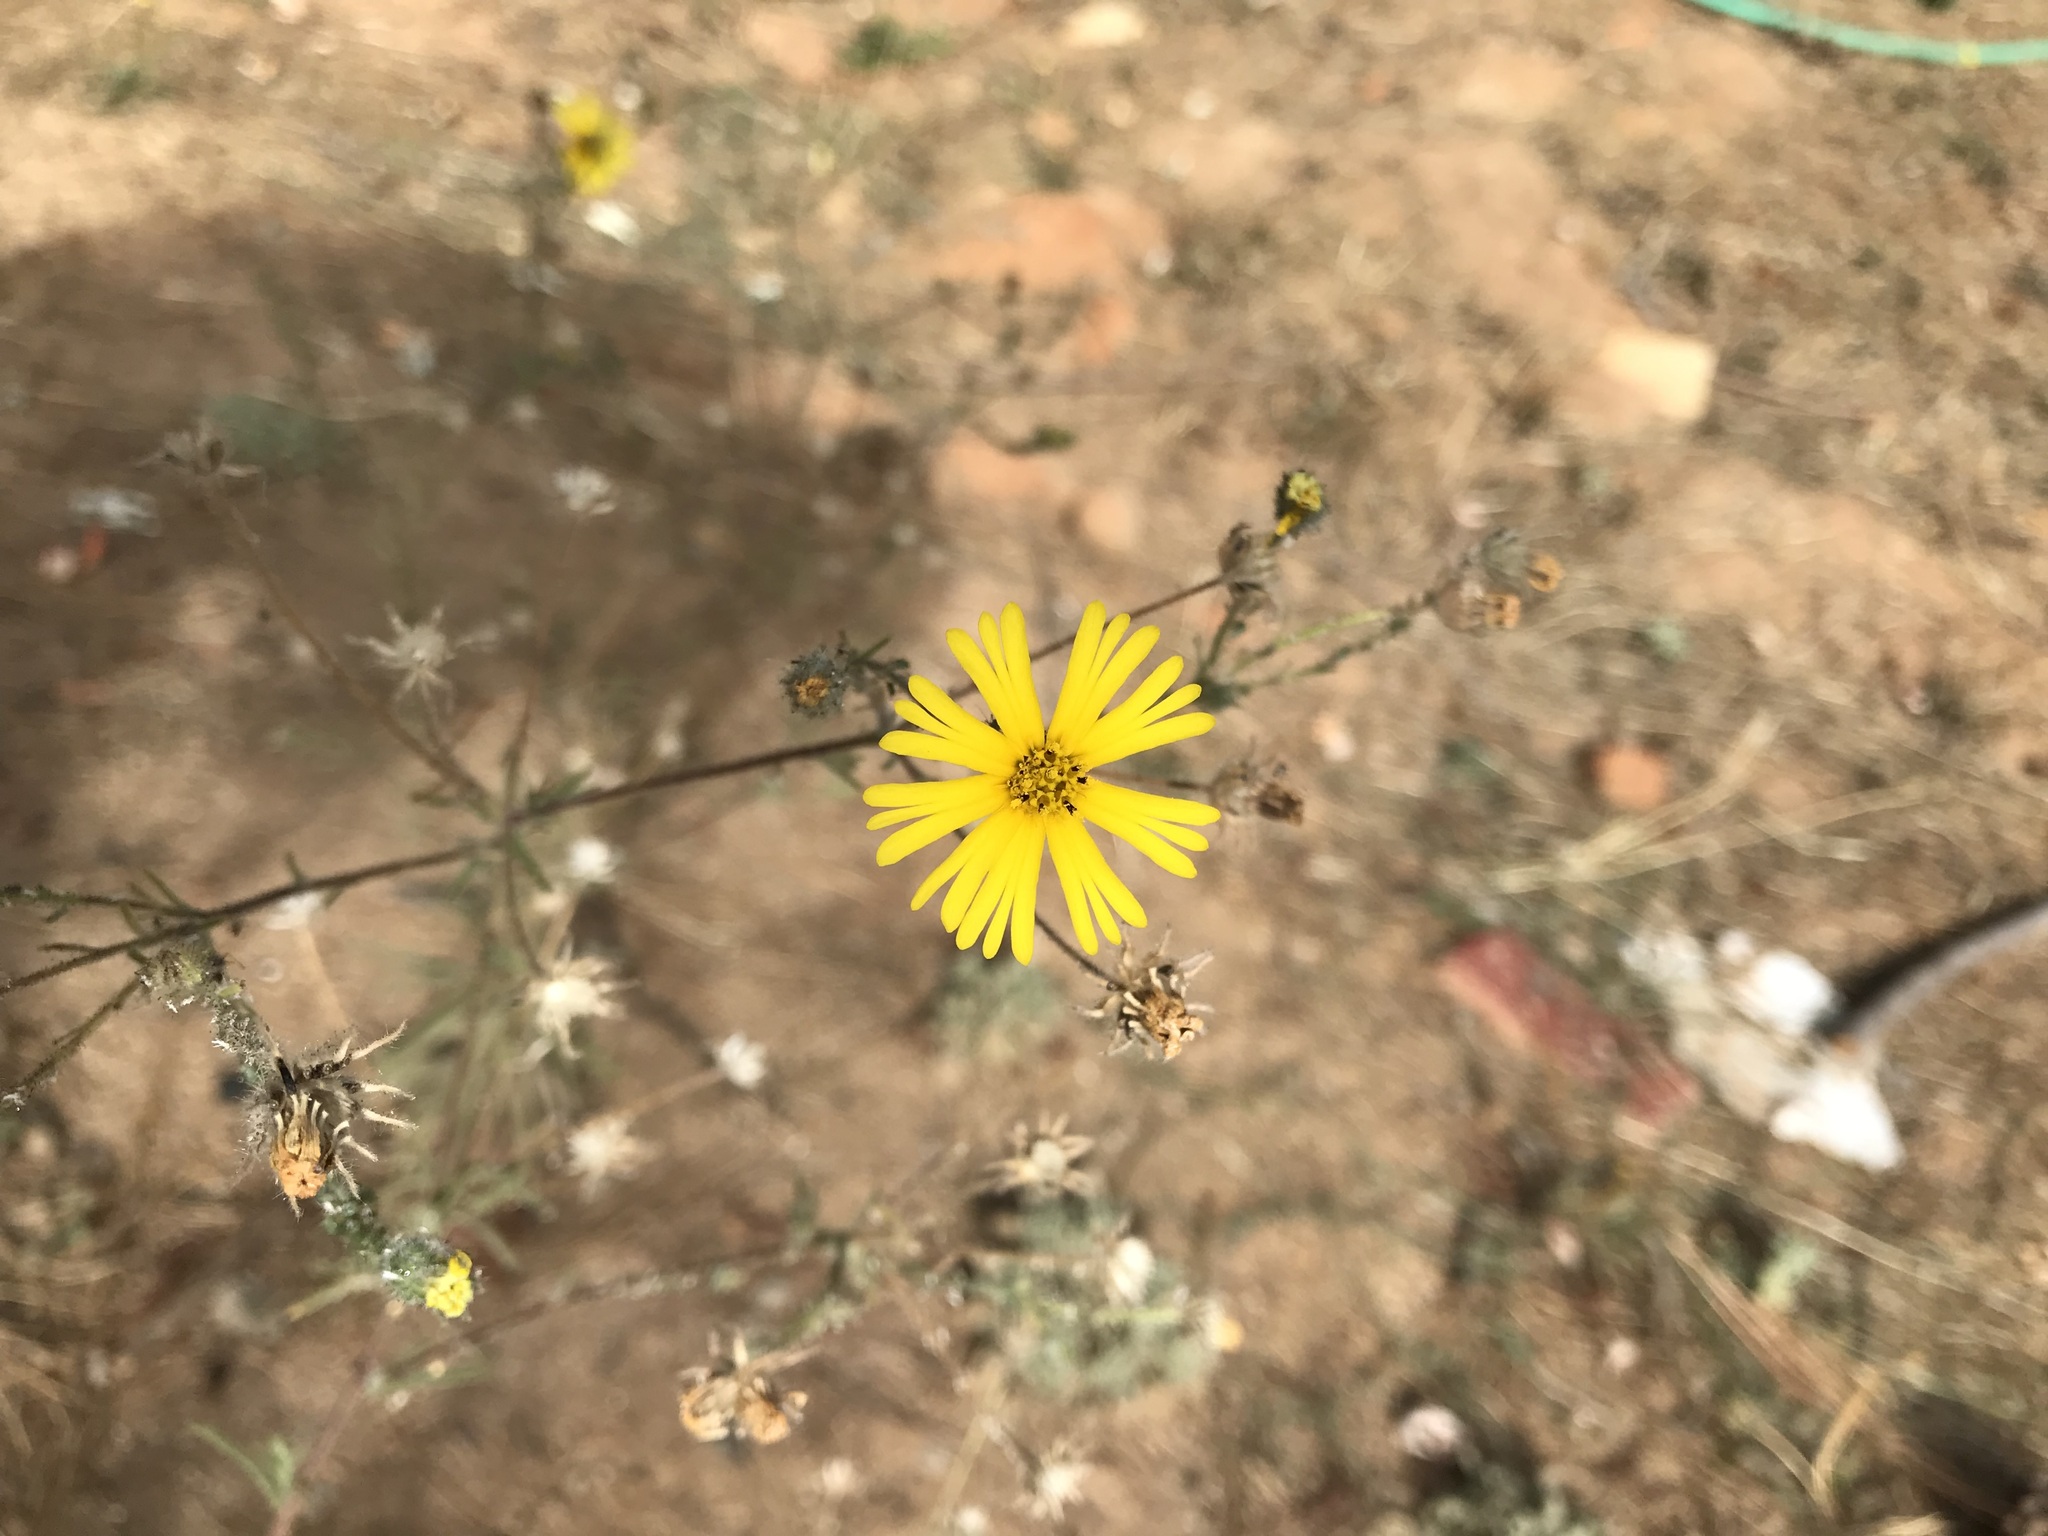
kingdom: Plantae
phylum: Tracheophyta
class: Magnoliopsida
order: Asterales
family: Asteraceae
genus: Madia
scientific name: Madia elegans
